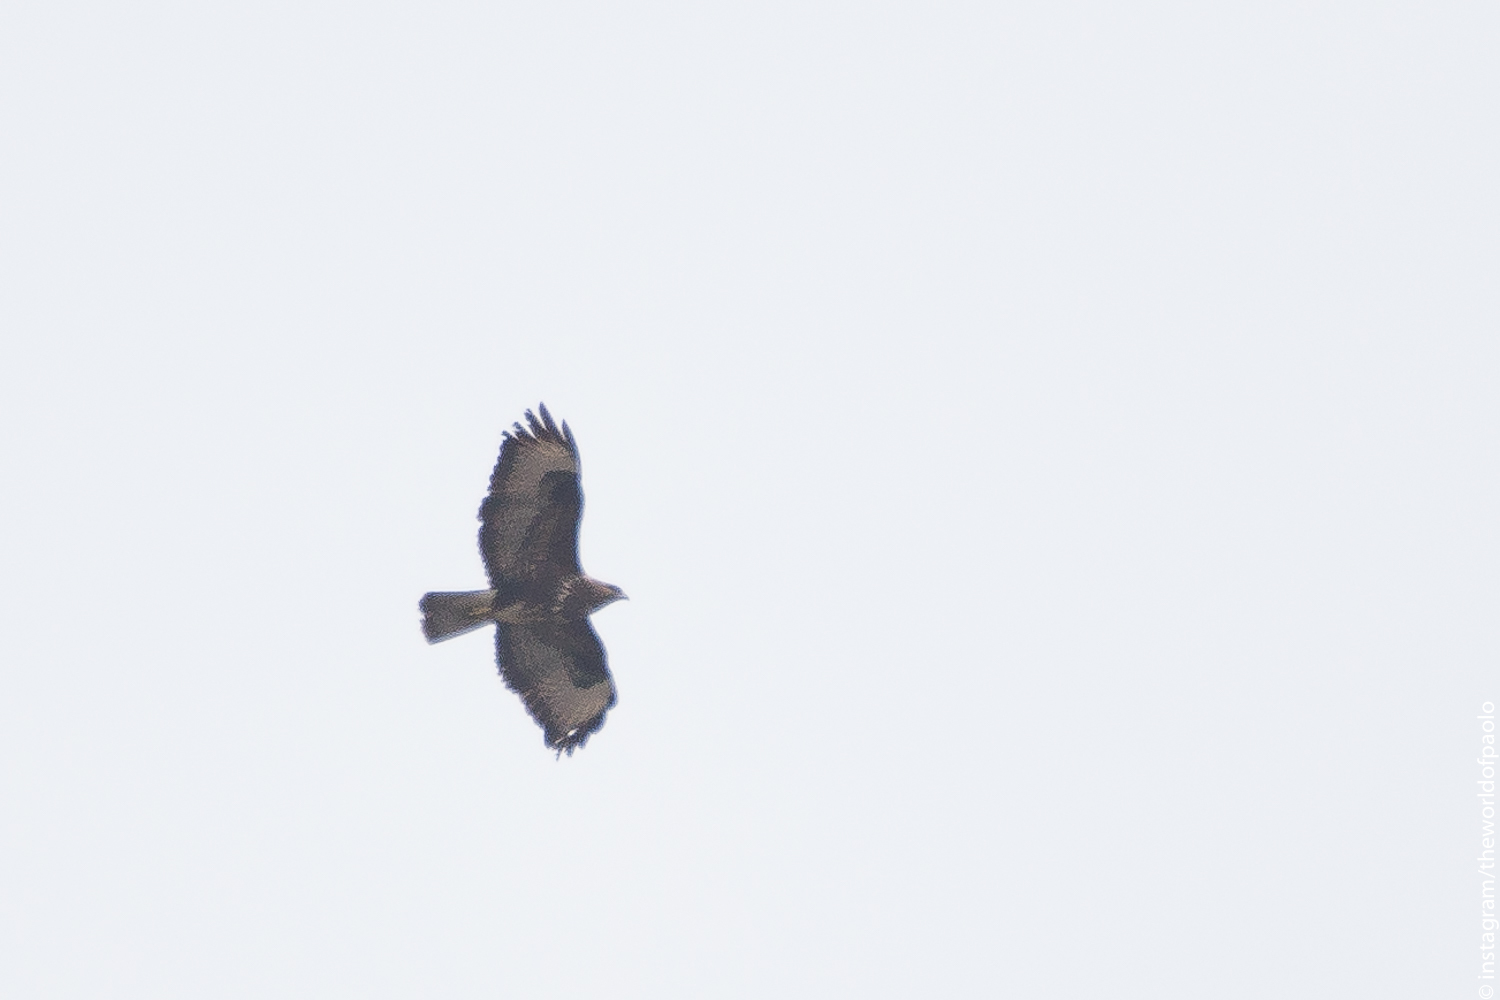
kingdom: Animalia
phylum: Chordata
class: Aves
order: Accipitriformes
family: Accipitridae
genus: Buteo
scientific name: Buteo buteo
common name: Common buzzard
